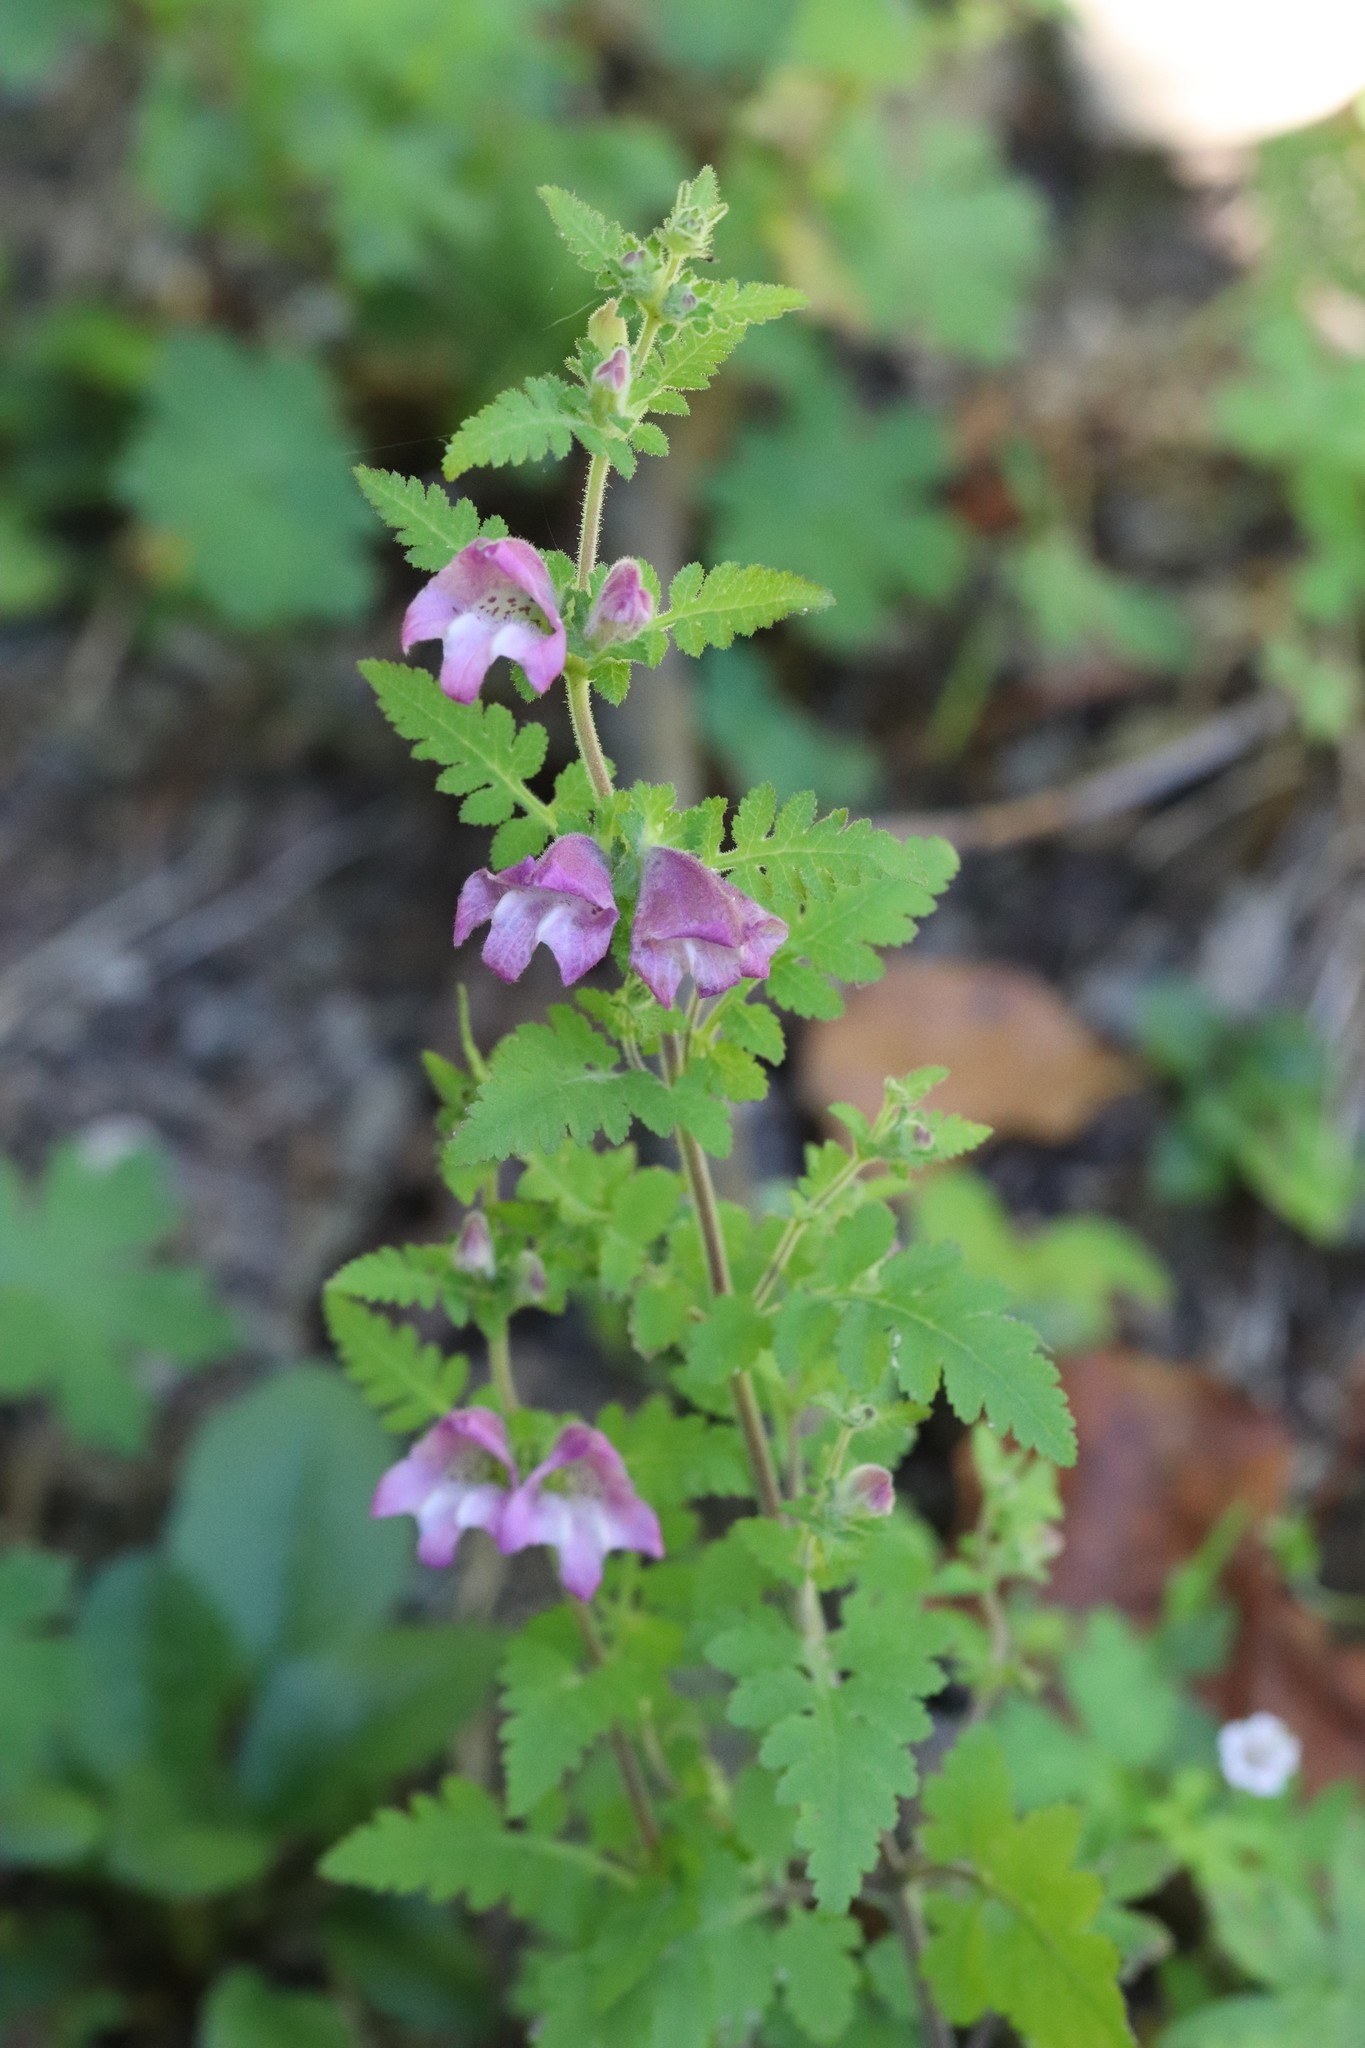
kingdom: Plantae
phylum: Tracheophyta
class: Magnoliopsida
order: Lamiales
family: Orobanchaceae
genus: Phtheirospermum
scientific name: Phtheirospermum japonicum
